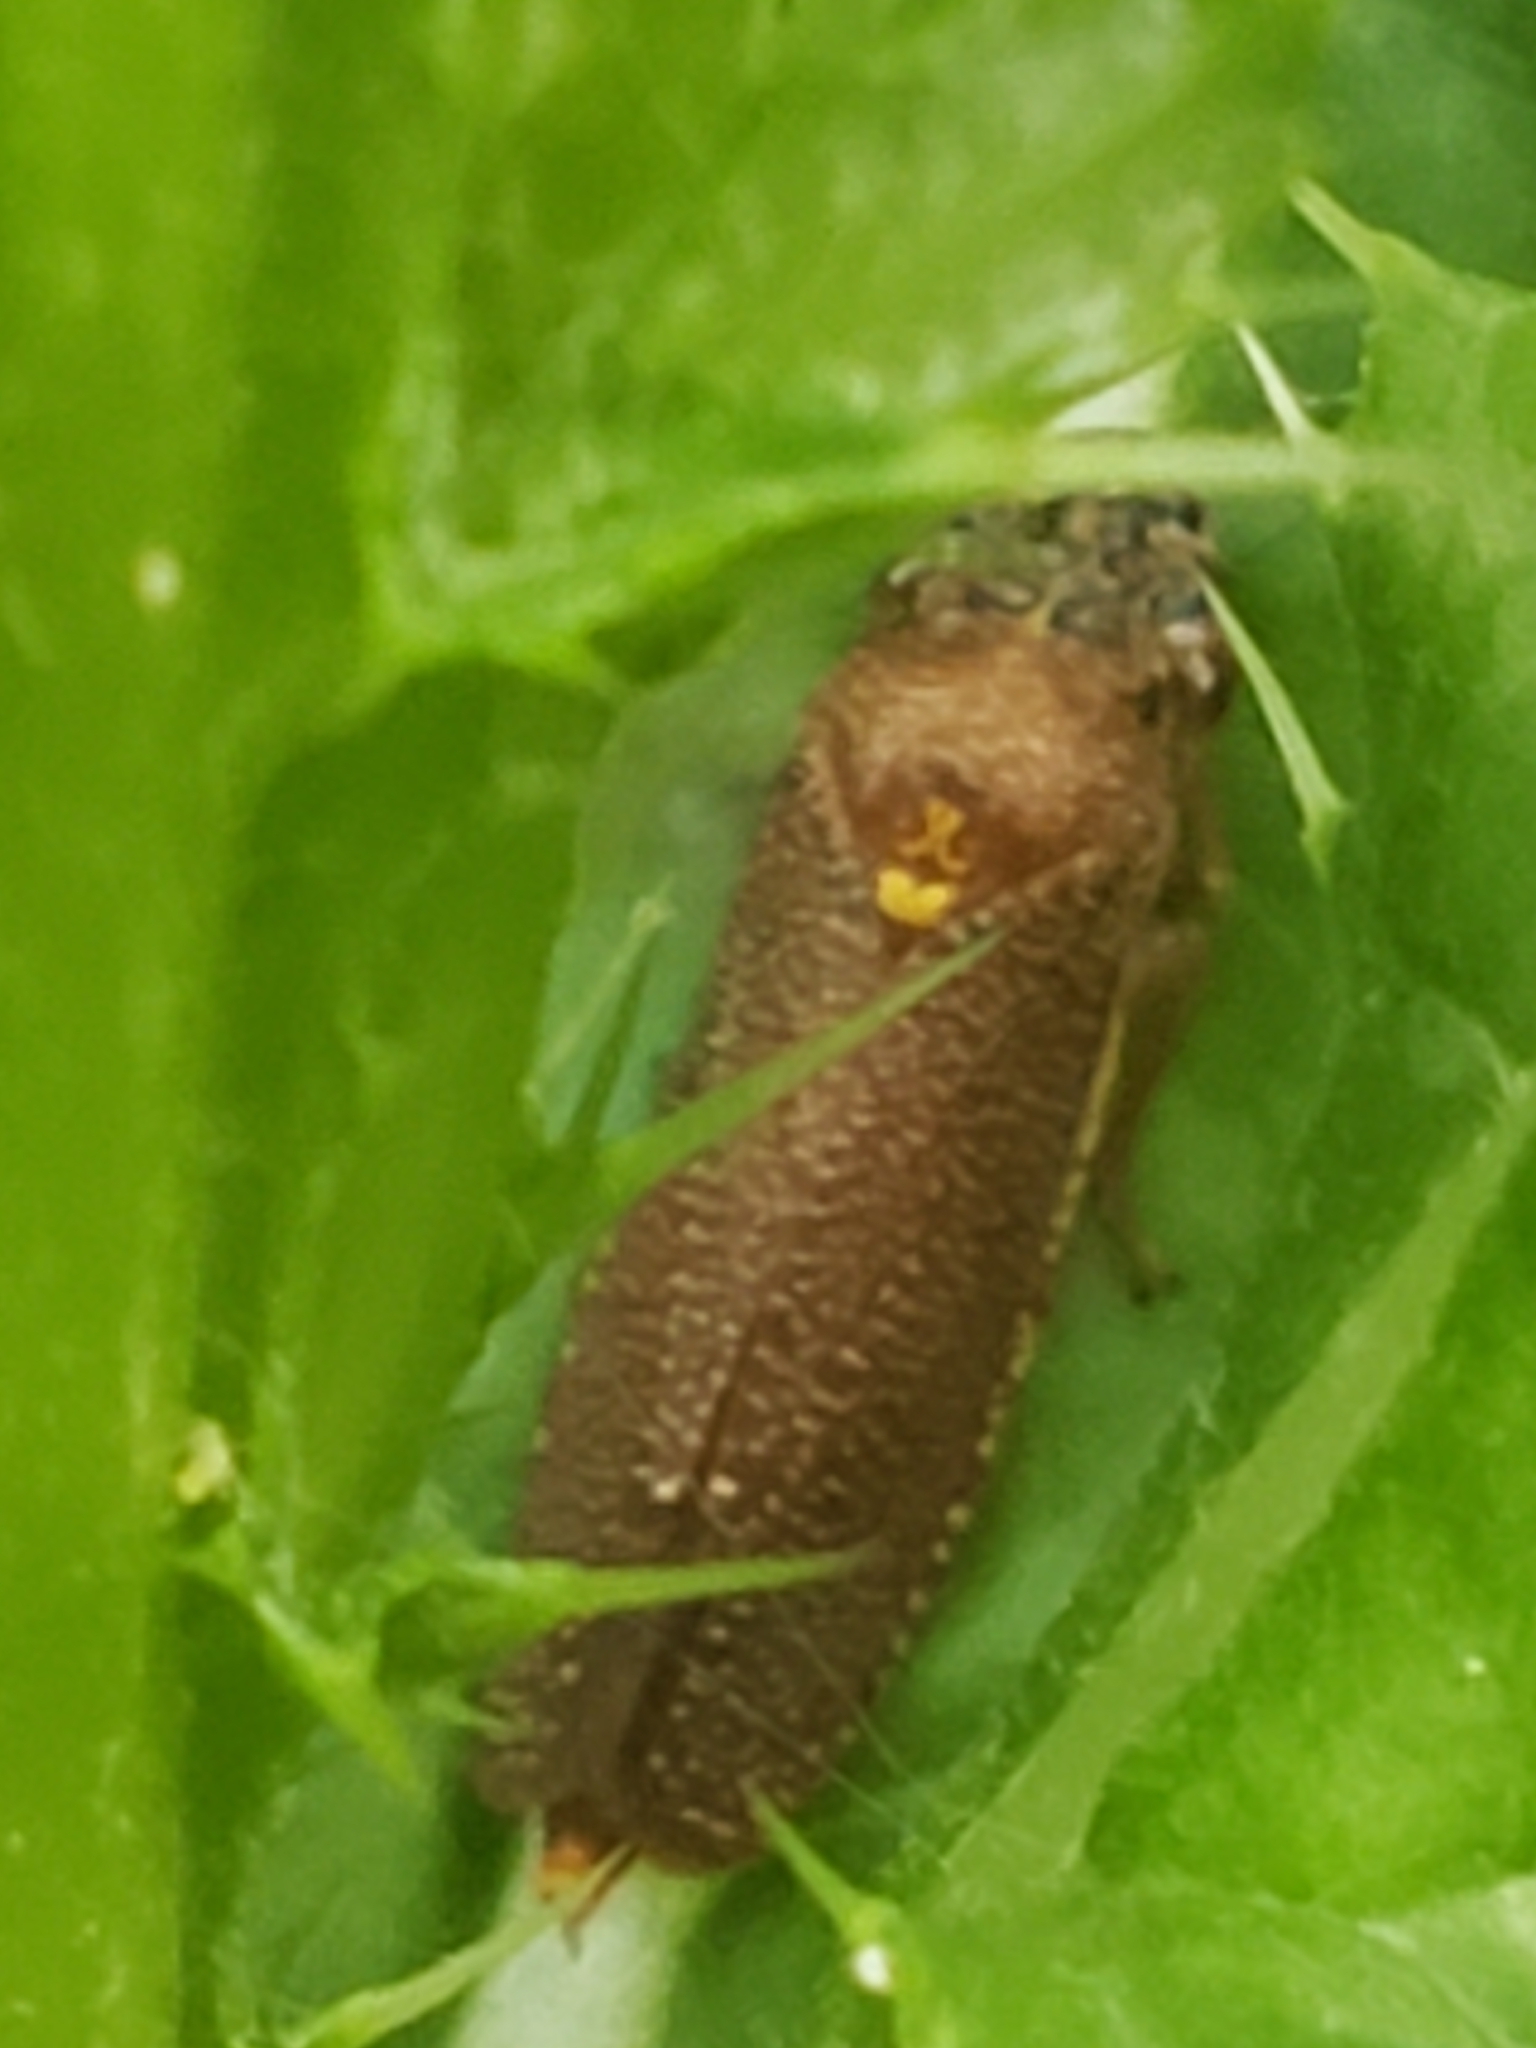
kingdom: Animalia
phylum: Arthropoda
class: Insecta
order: Hemiptera
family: Cicadellidae
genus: Paraulacizes
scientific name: Paraulacizes irrorata
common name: Speckled sharpshooter
